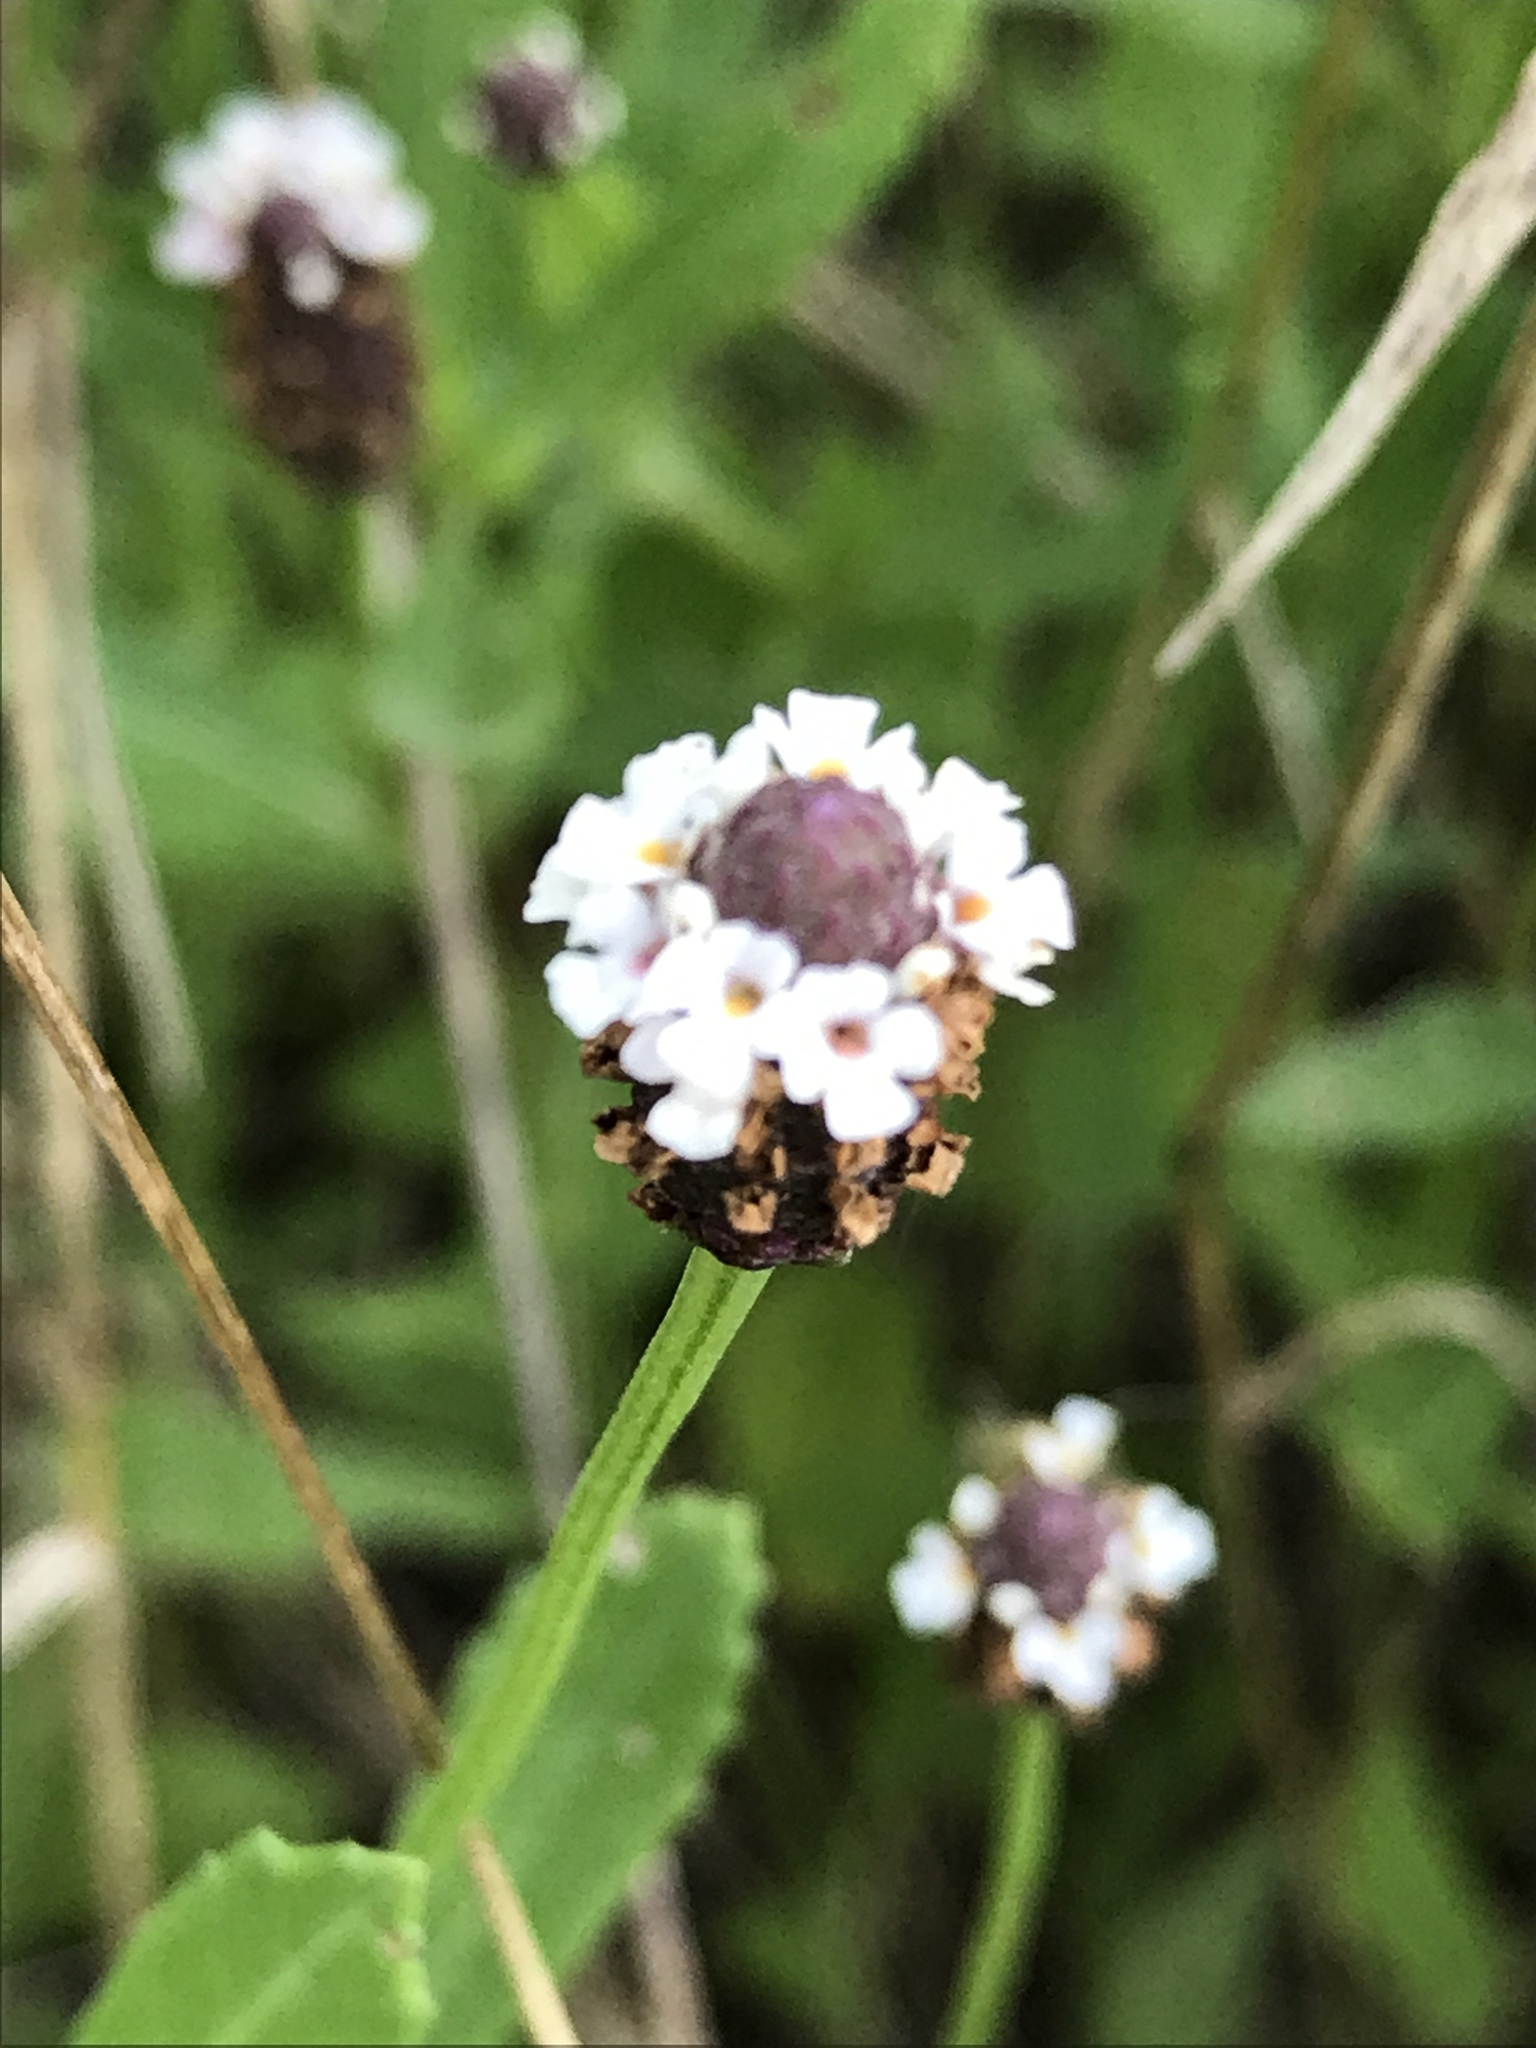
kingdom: Plantae
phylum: Tracheophyta
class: Magnoliopsida
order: Lamiales
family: Verbenaceae
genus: Phyla
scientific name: Phyla nodiflora
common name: Frogfruit
